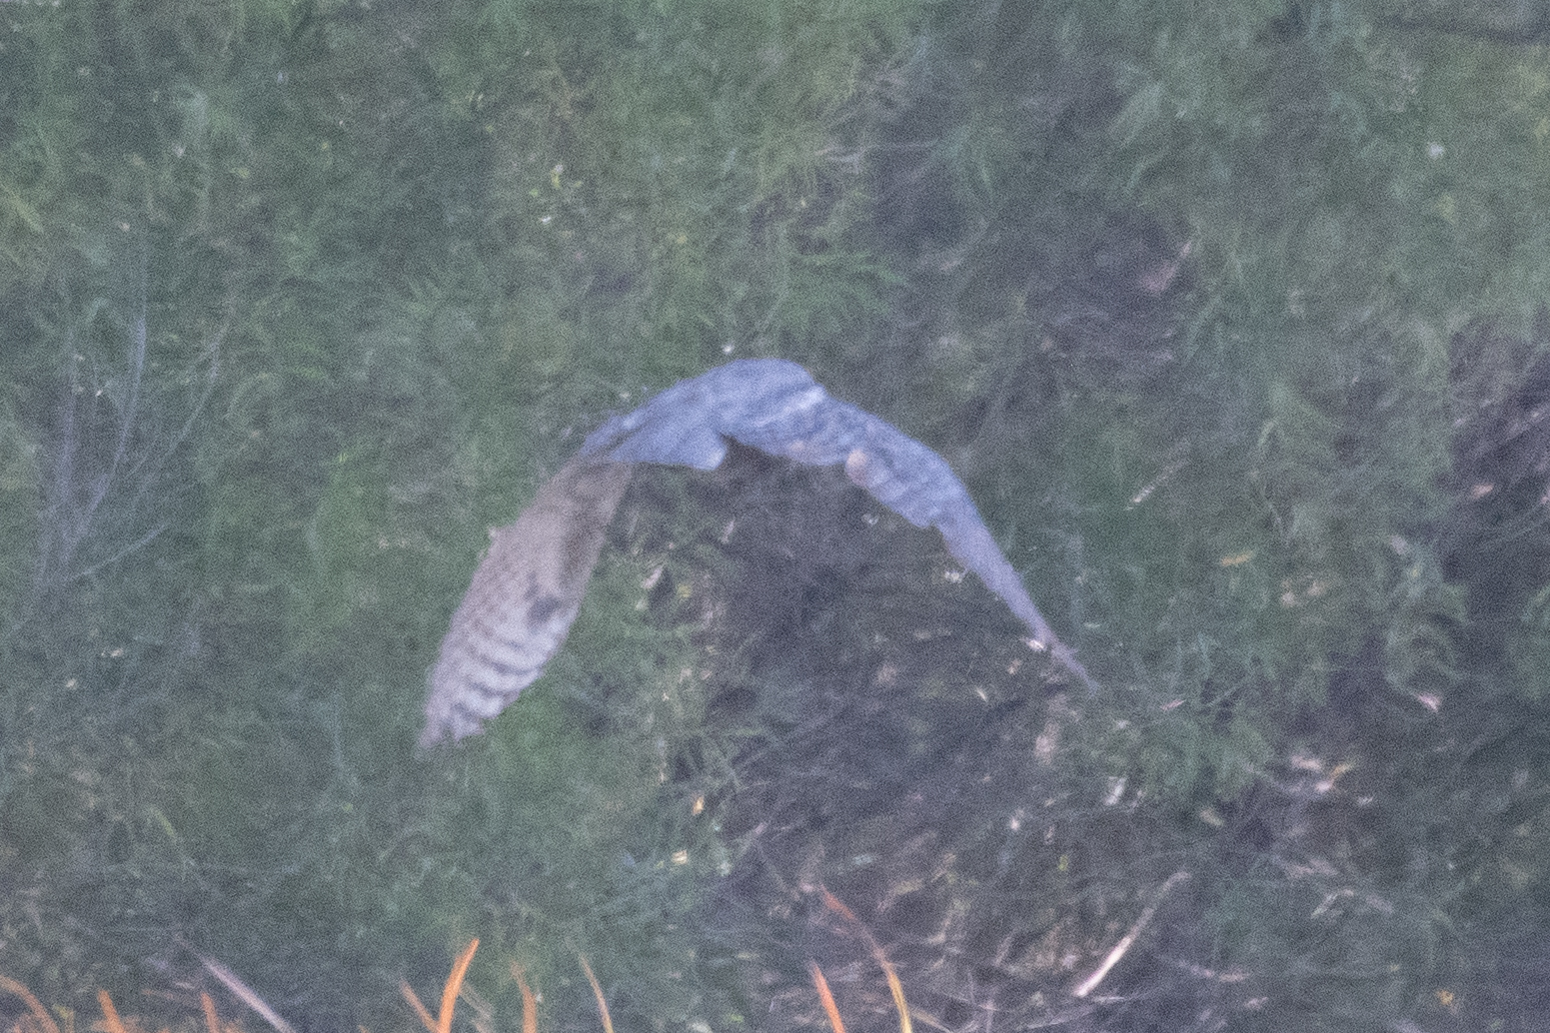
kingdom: Animalia
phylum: Chordata
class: Aves
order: Strigiformes
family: Strigidae
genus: Bubo
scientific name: Bubo virginianus
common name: Great horned owl
